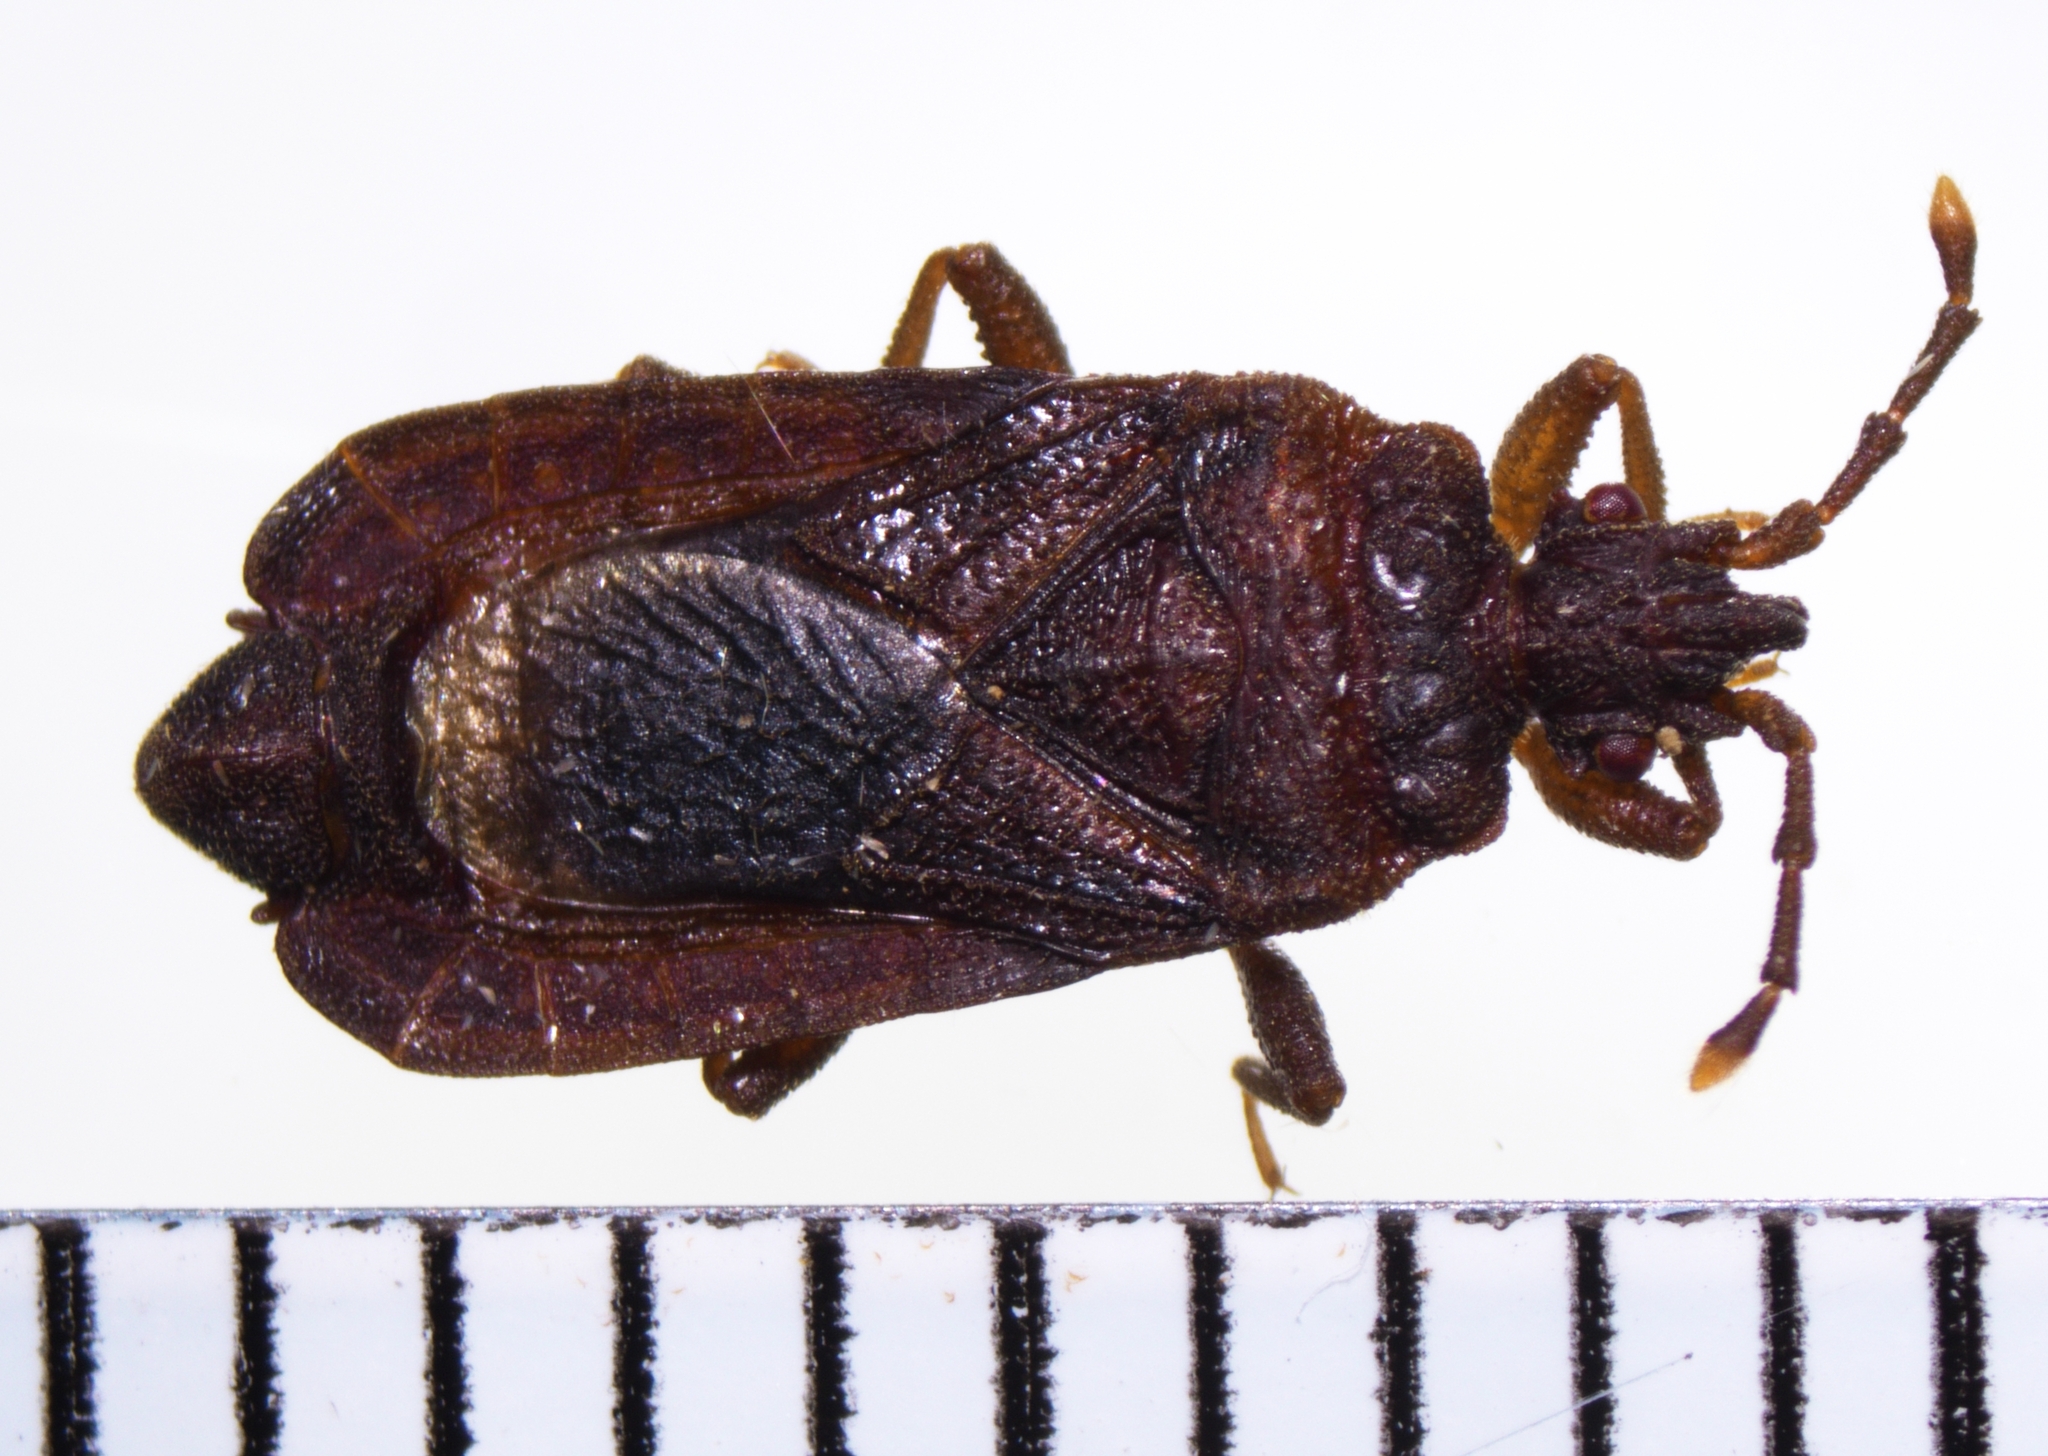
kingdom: Animalia
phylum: Arthropoda
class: Insecta
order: Hemiptera
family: Aradidae
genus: Brachyrhynchus
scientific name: Brachyrhynchus membranaceus
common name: Aradid flat bug
